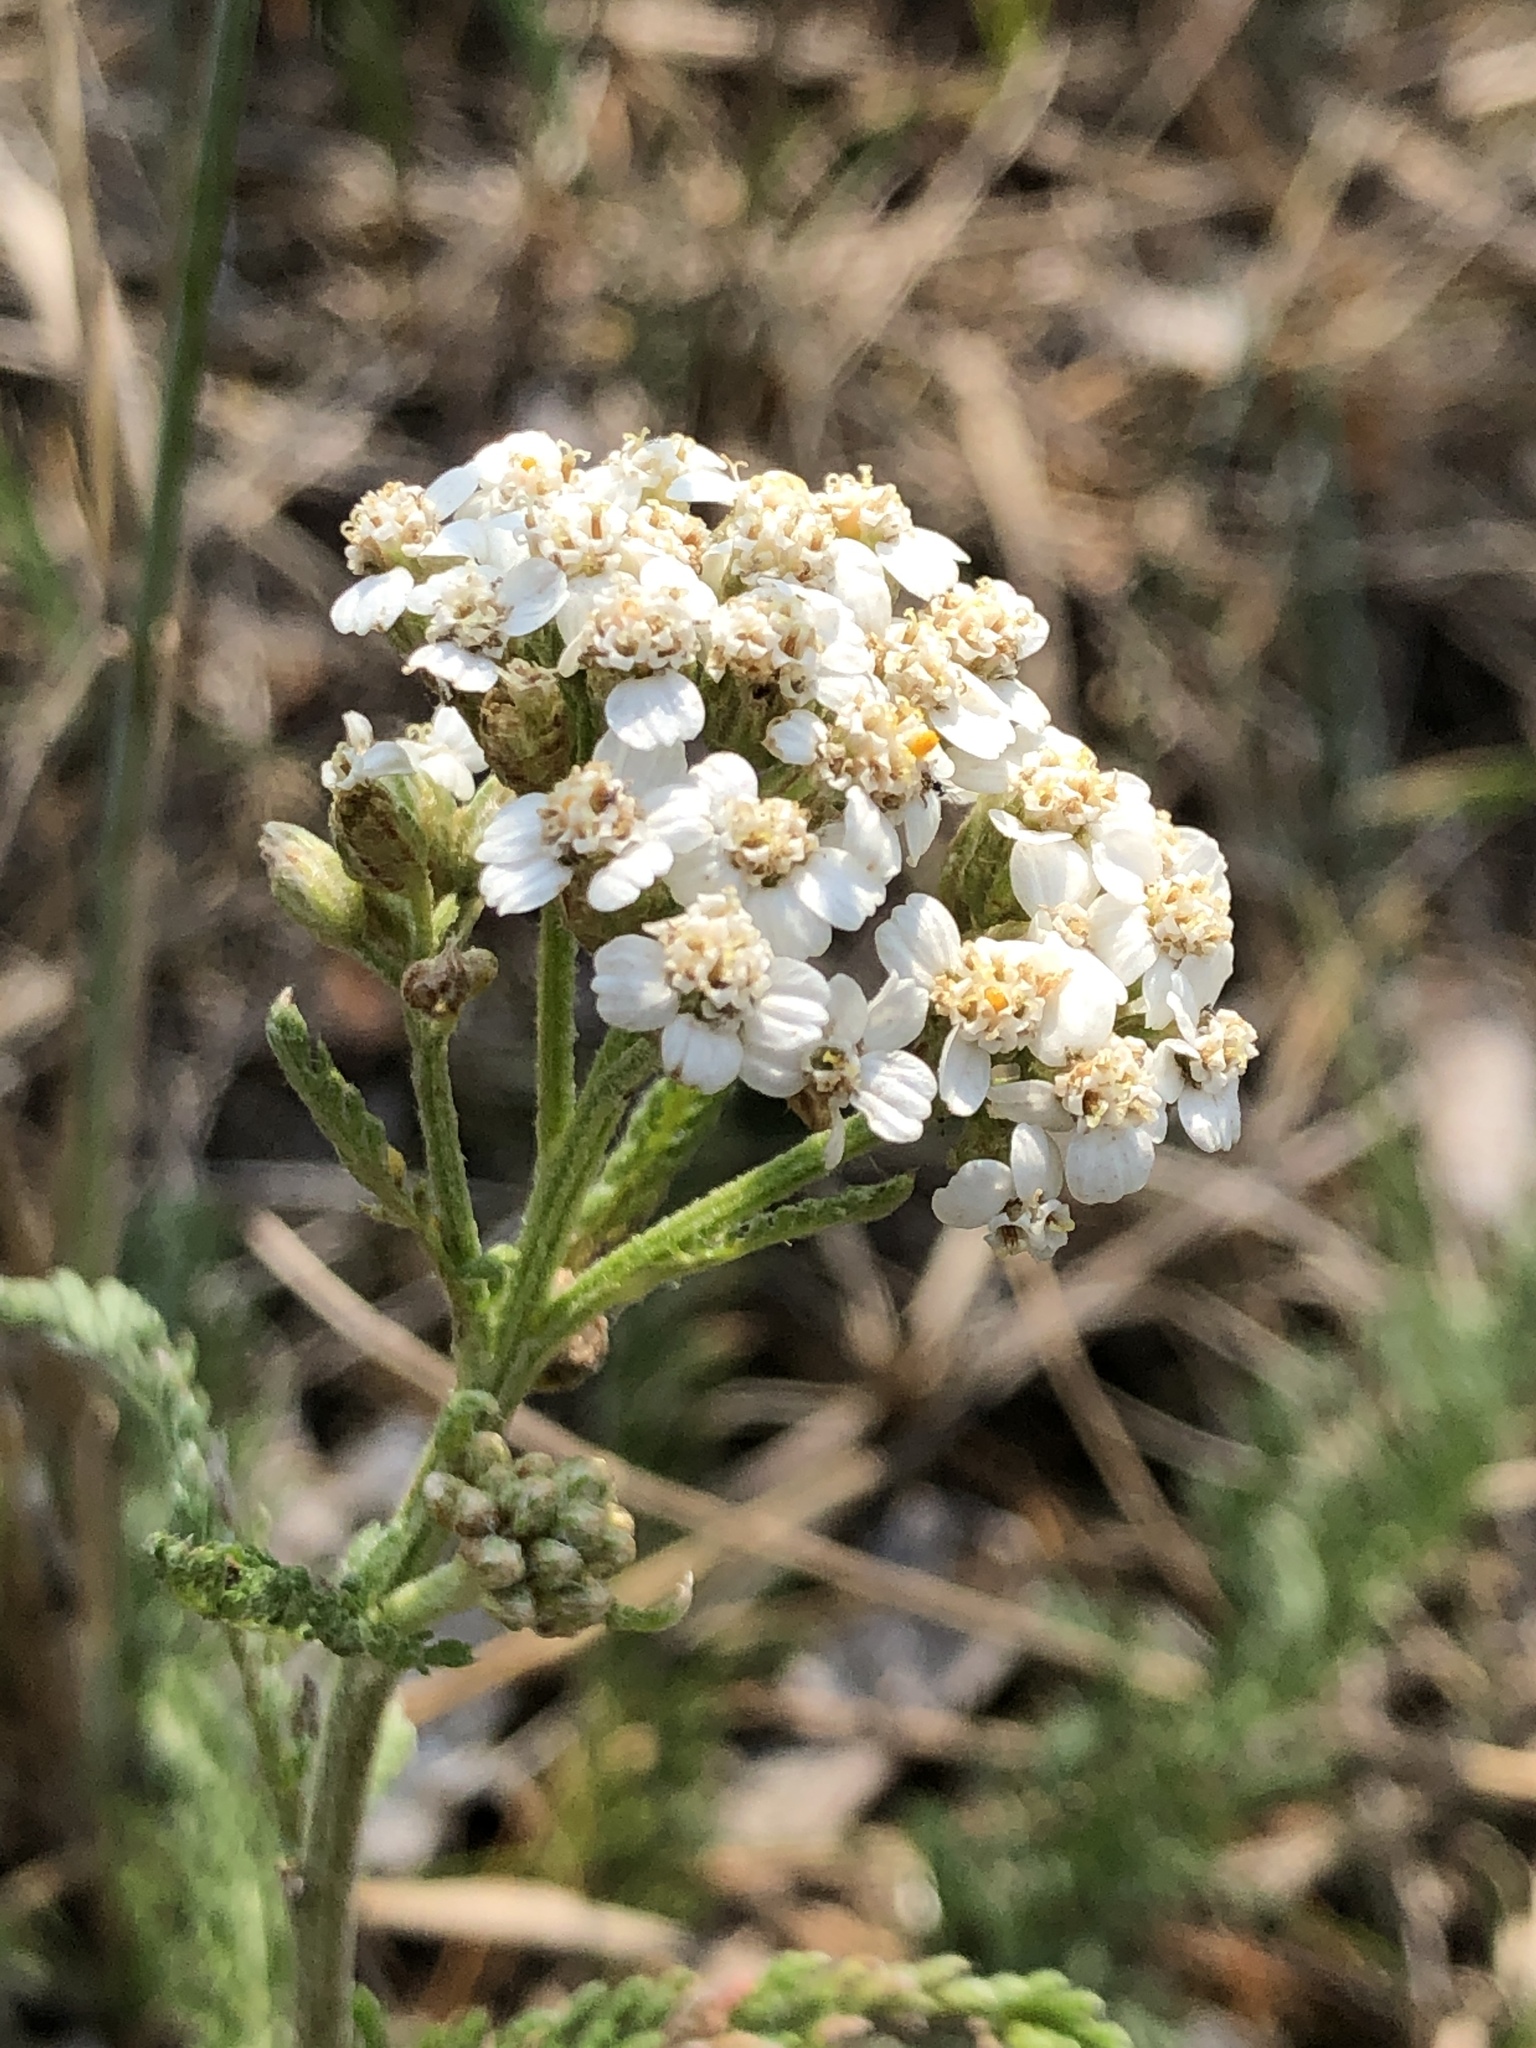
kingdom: Plantae
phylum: Tracheophyta
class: Magnoliopsida
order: Asterales
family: Asteraceae
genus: Achillea
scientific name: Achillea millefolium
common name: Yarrow
